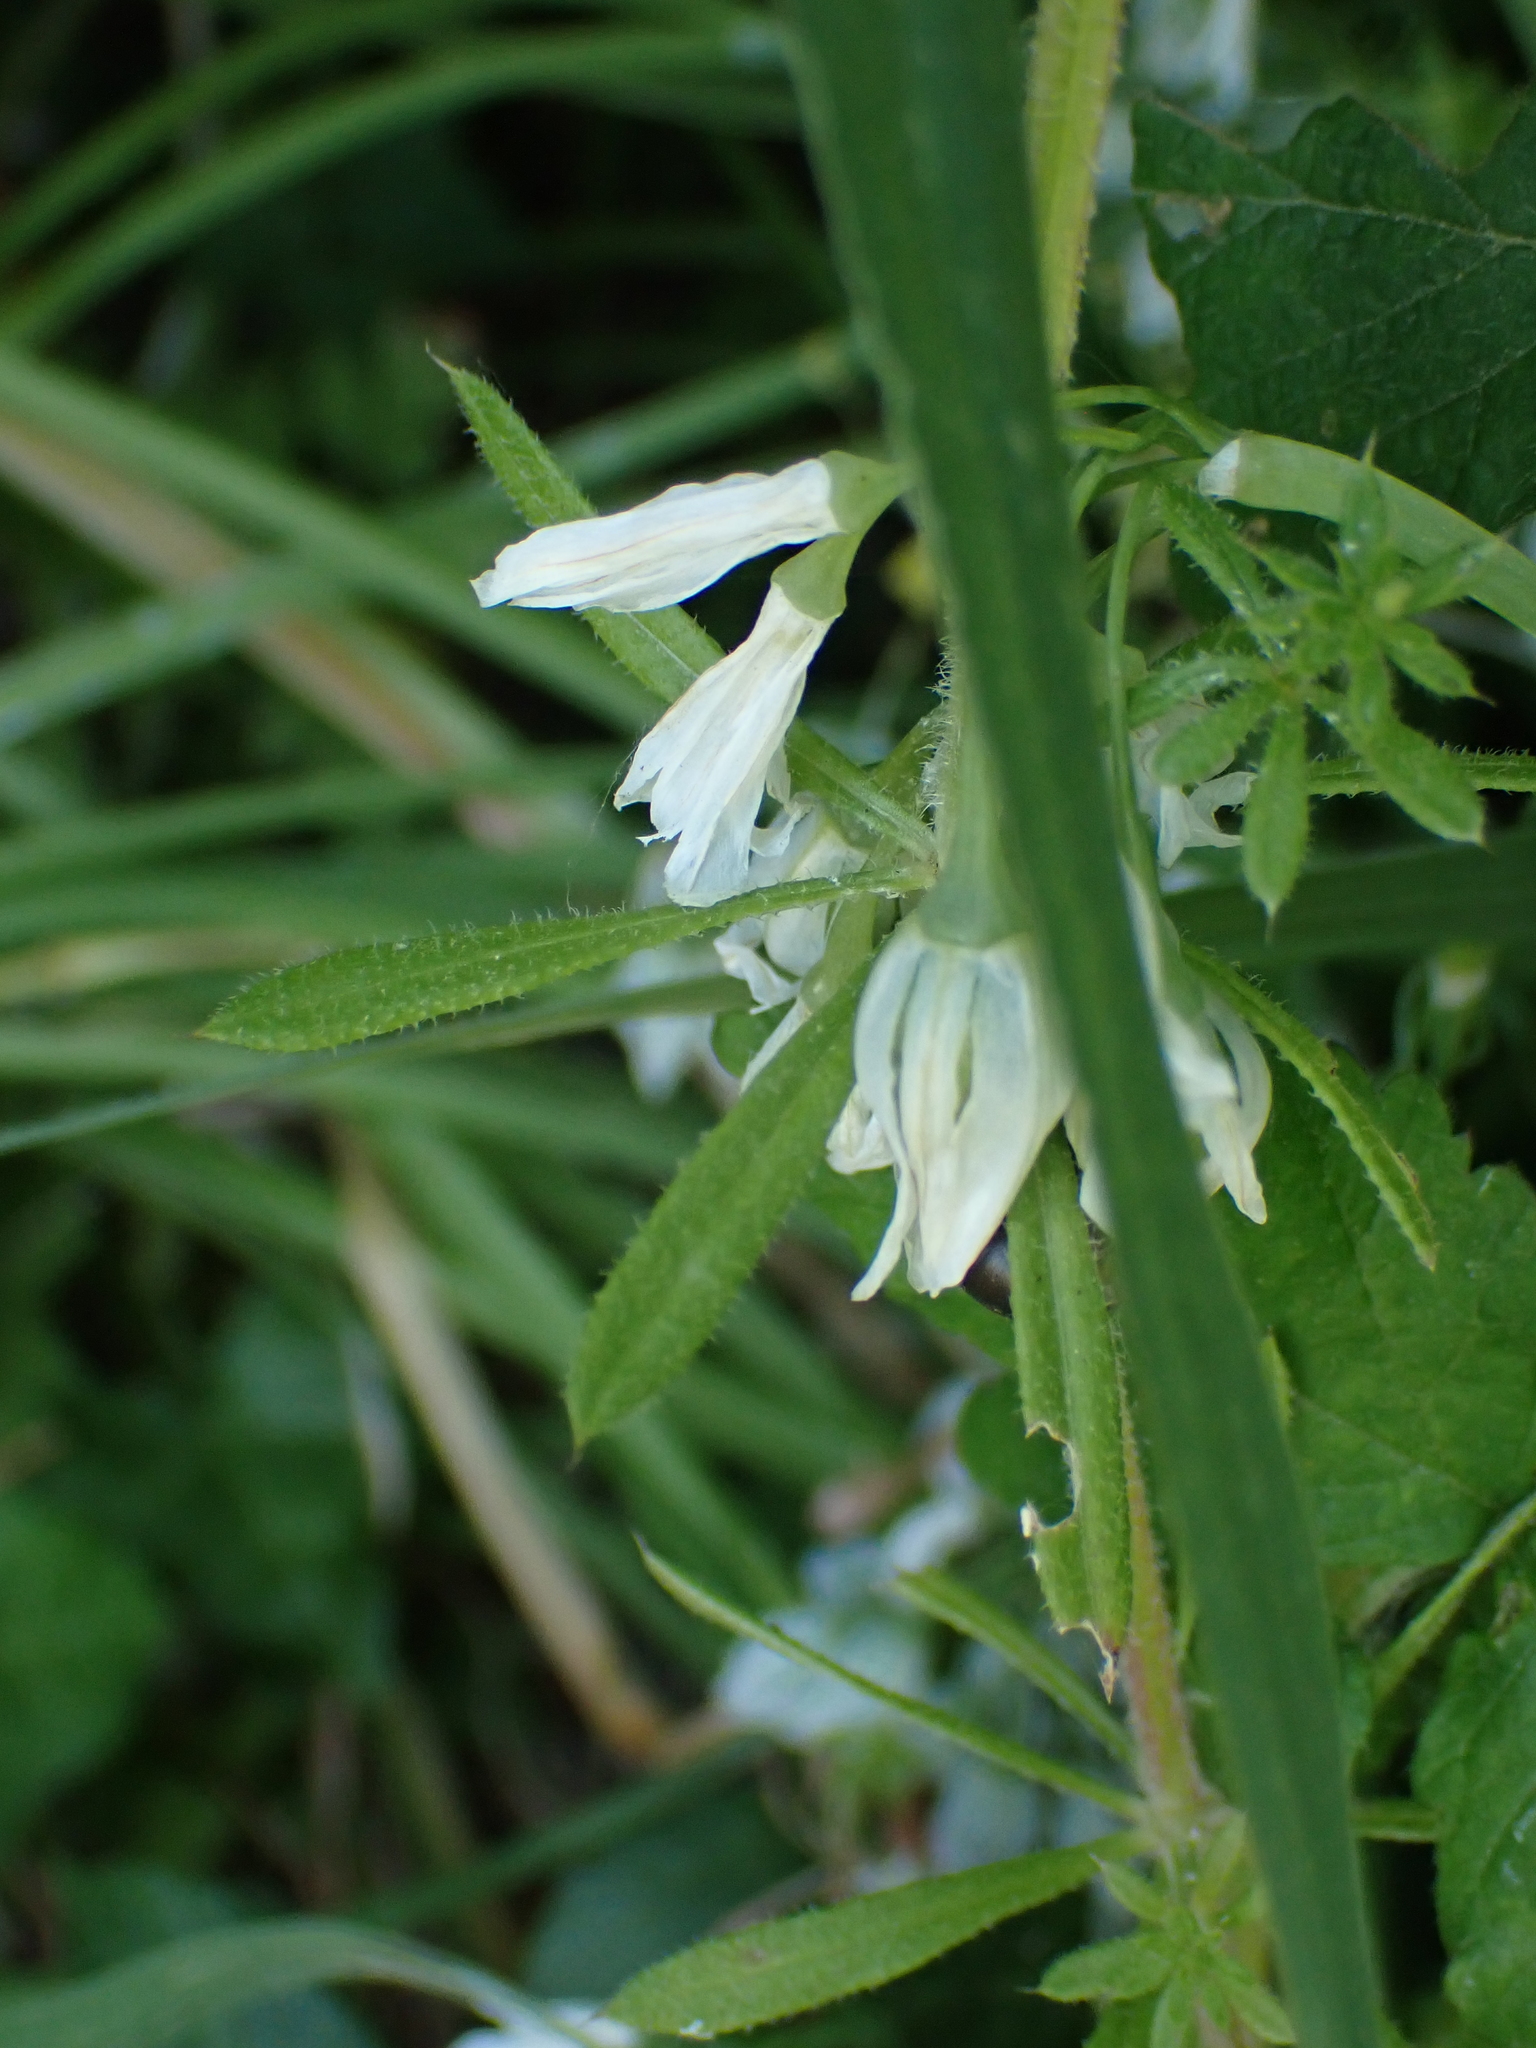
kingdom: Plantae
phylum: Tracheophyta
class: Liliopsida
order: Asparagales
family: Amaryllidaceae
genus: Allium
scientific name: Allium triquetrum
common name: Three-cornered garlic
